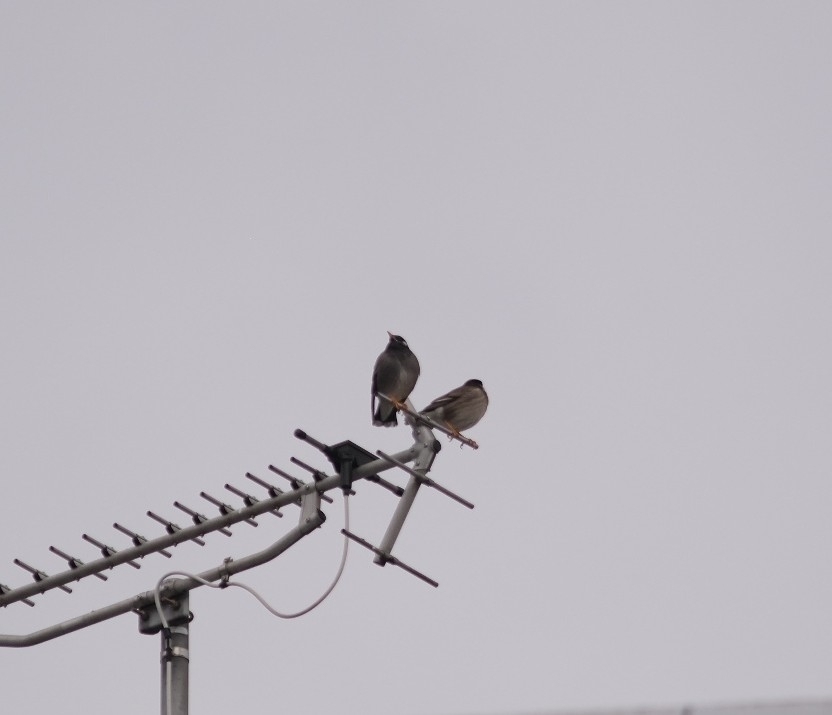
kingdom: Animalia
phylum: Chordata
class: Aves
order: Passeriformes
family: Sturnidae
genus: Spodiopsar
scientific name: Spodiopsar cineraceus
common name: White-cheeked starling
